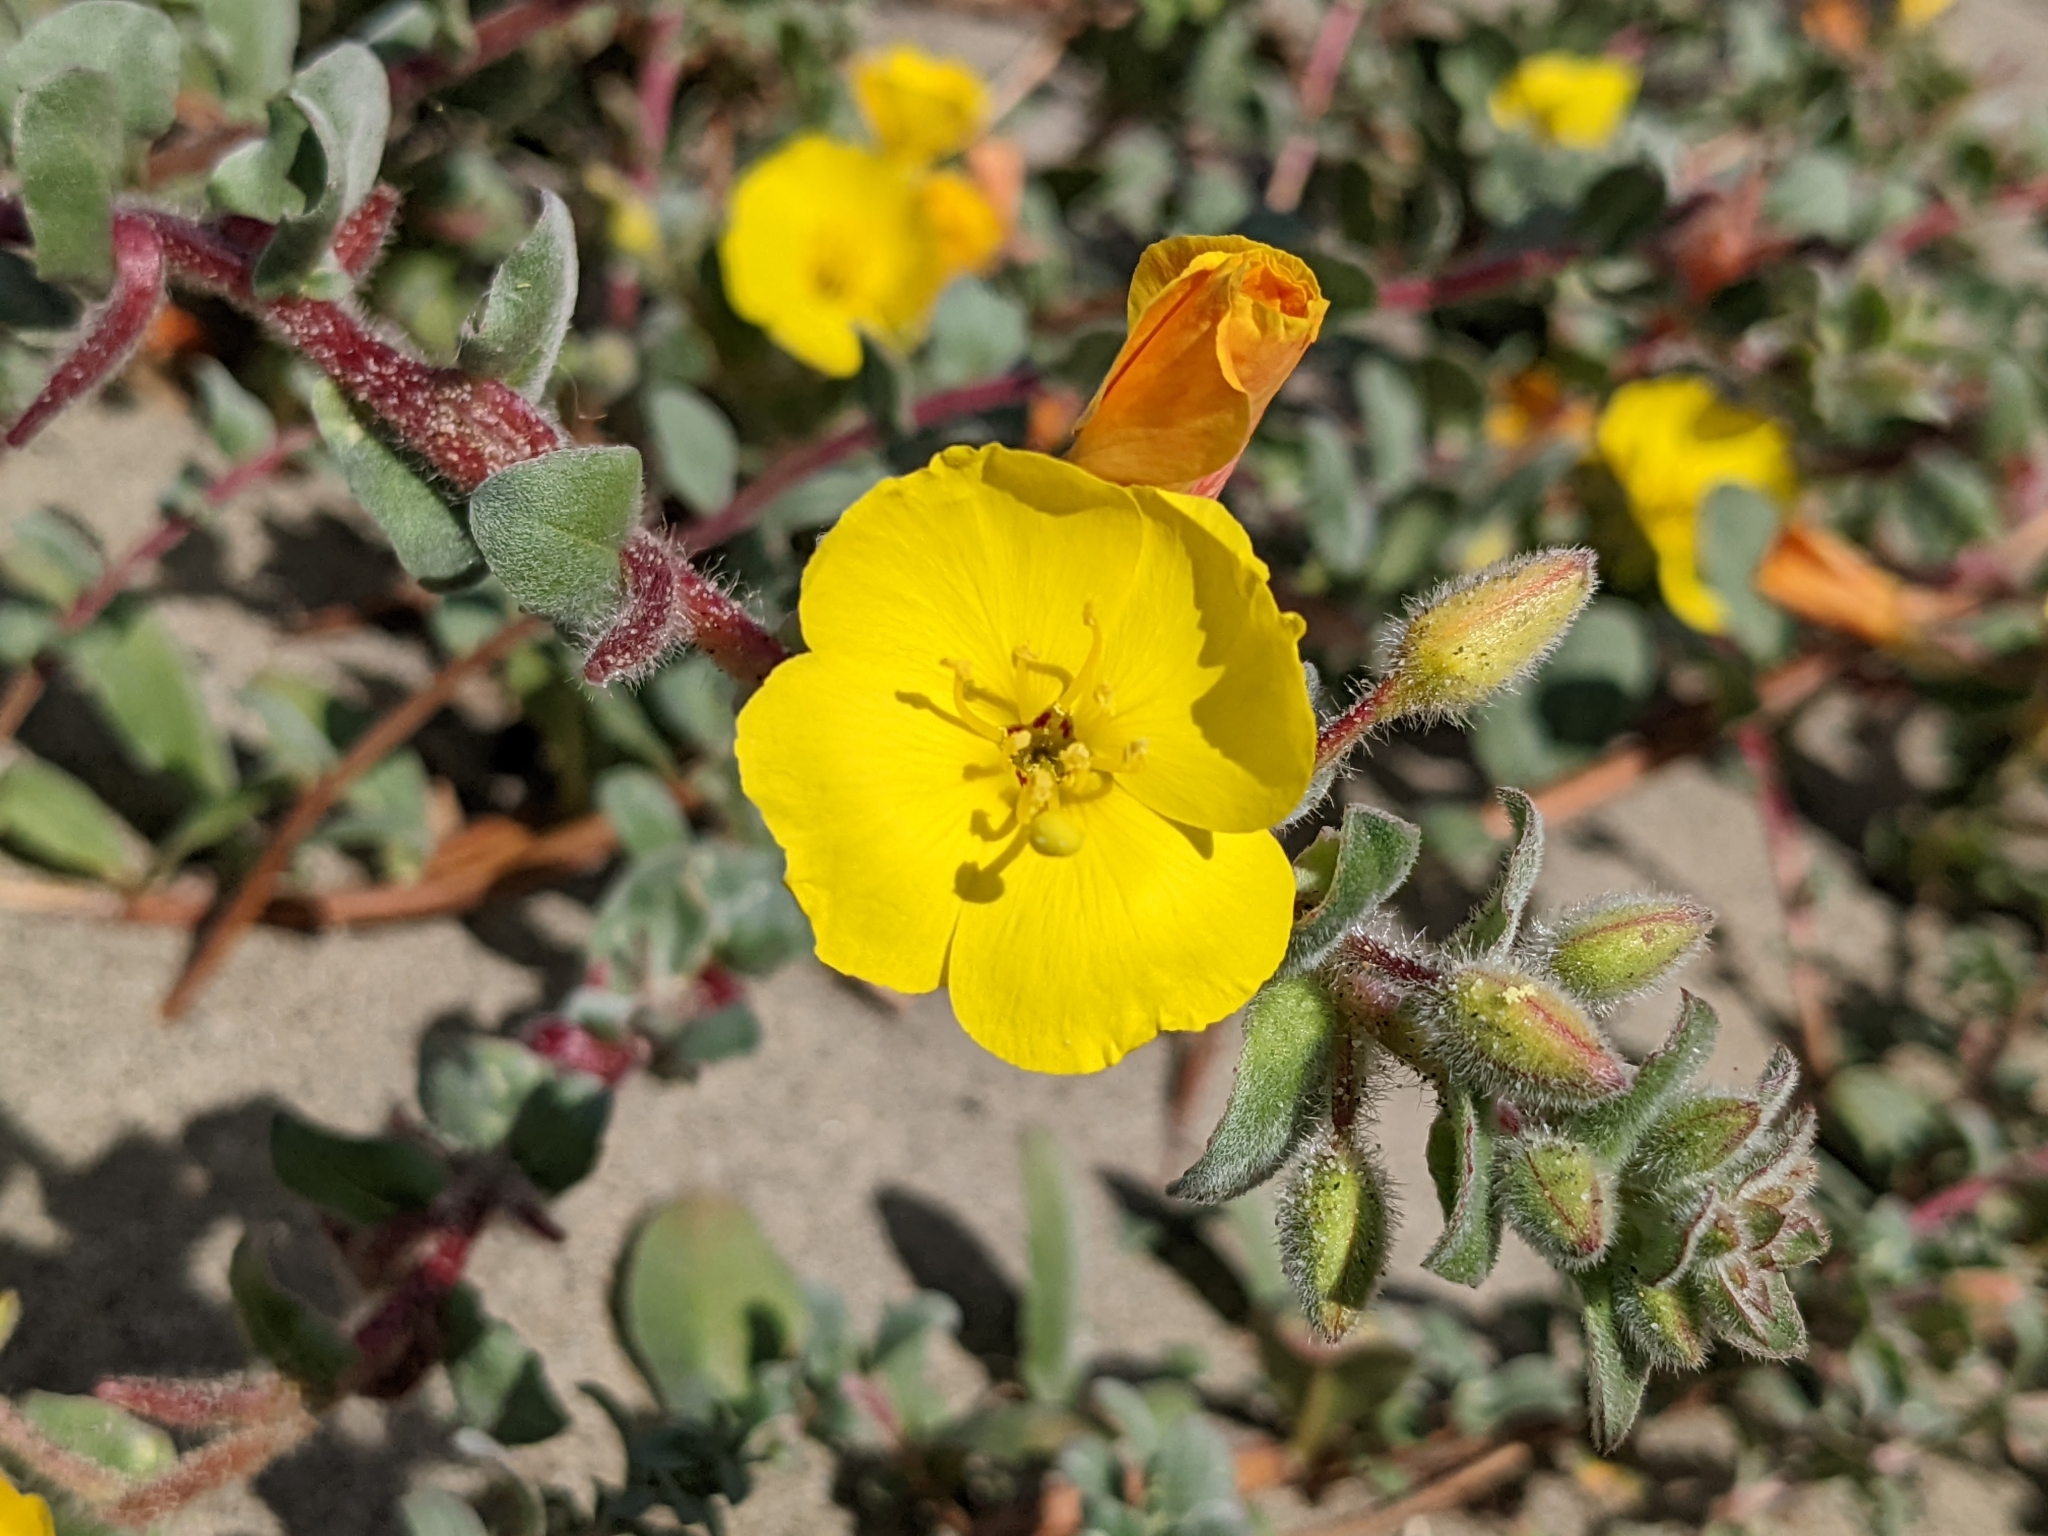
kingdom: Plantae
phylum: Tracheophyta
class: Magnoliopsida
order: Myrtales
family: Onagraceae
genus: Camissoniopsis
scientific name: Camissoniopsis cheiranthifolia
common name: Beach suncup
